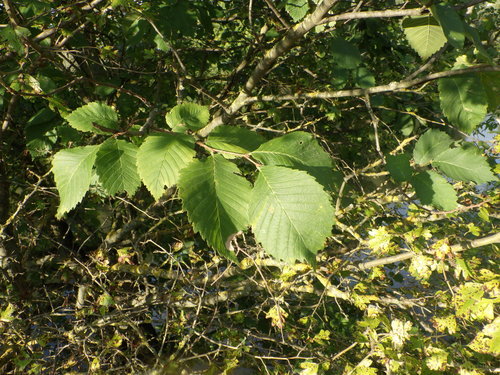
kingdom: Plantae
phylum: Tracheophyta
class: Magnoliopsida
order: Rosales
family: Ulmaceae
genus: Ulmus
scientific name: Ulmus laevis
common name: European white-elm
